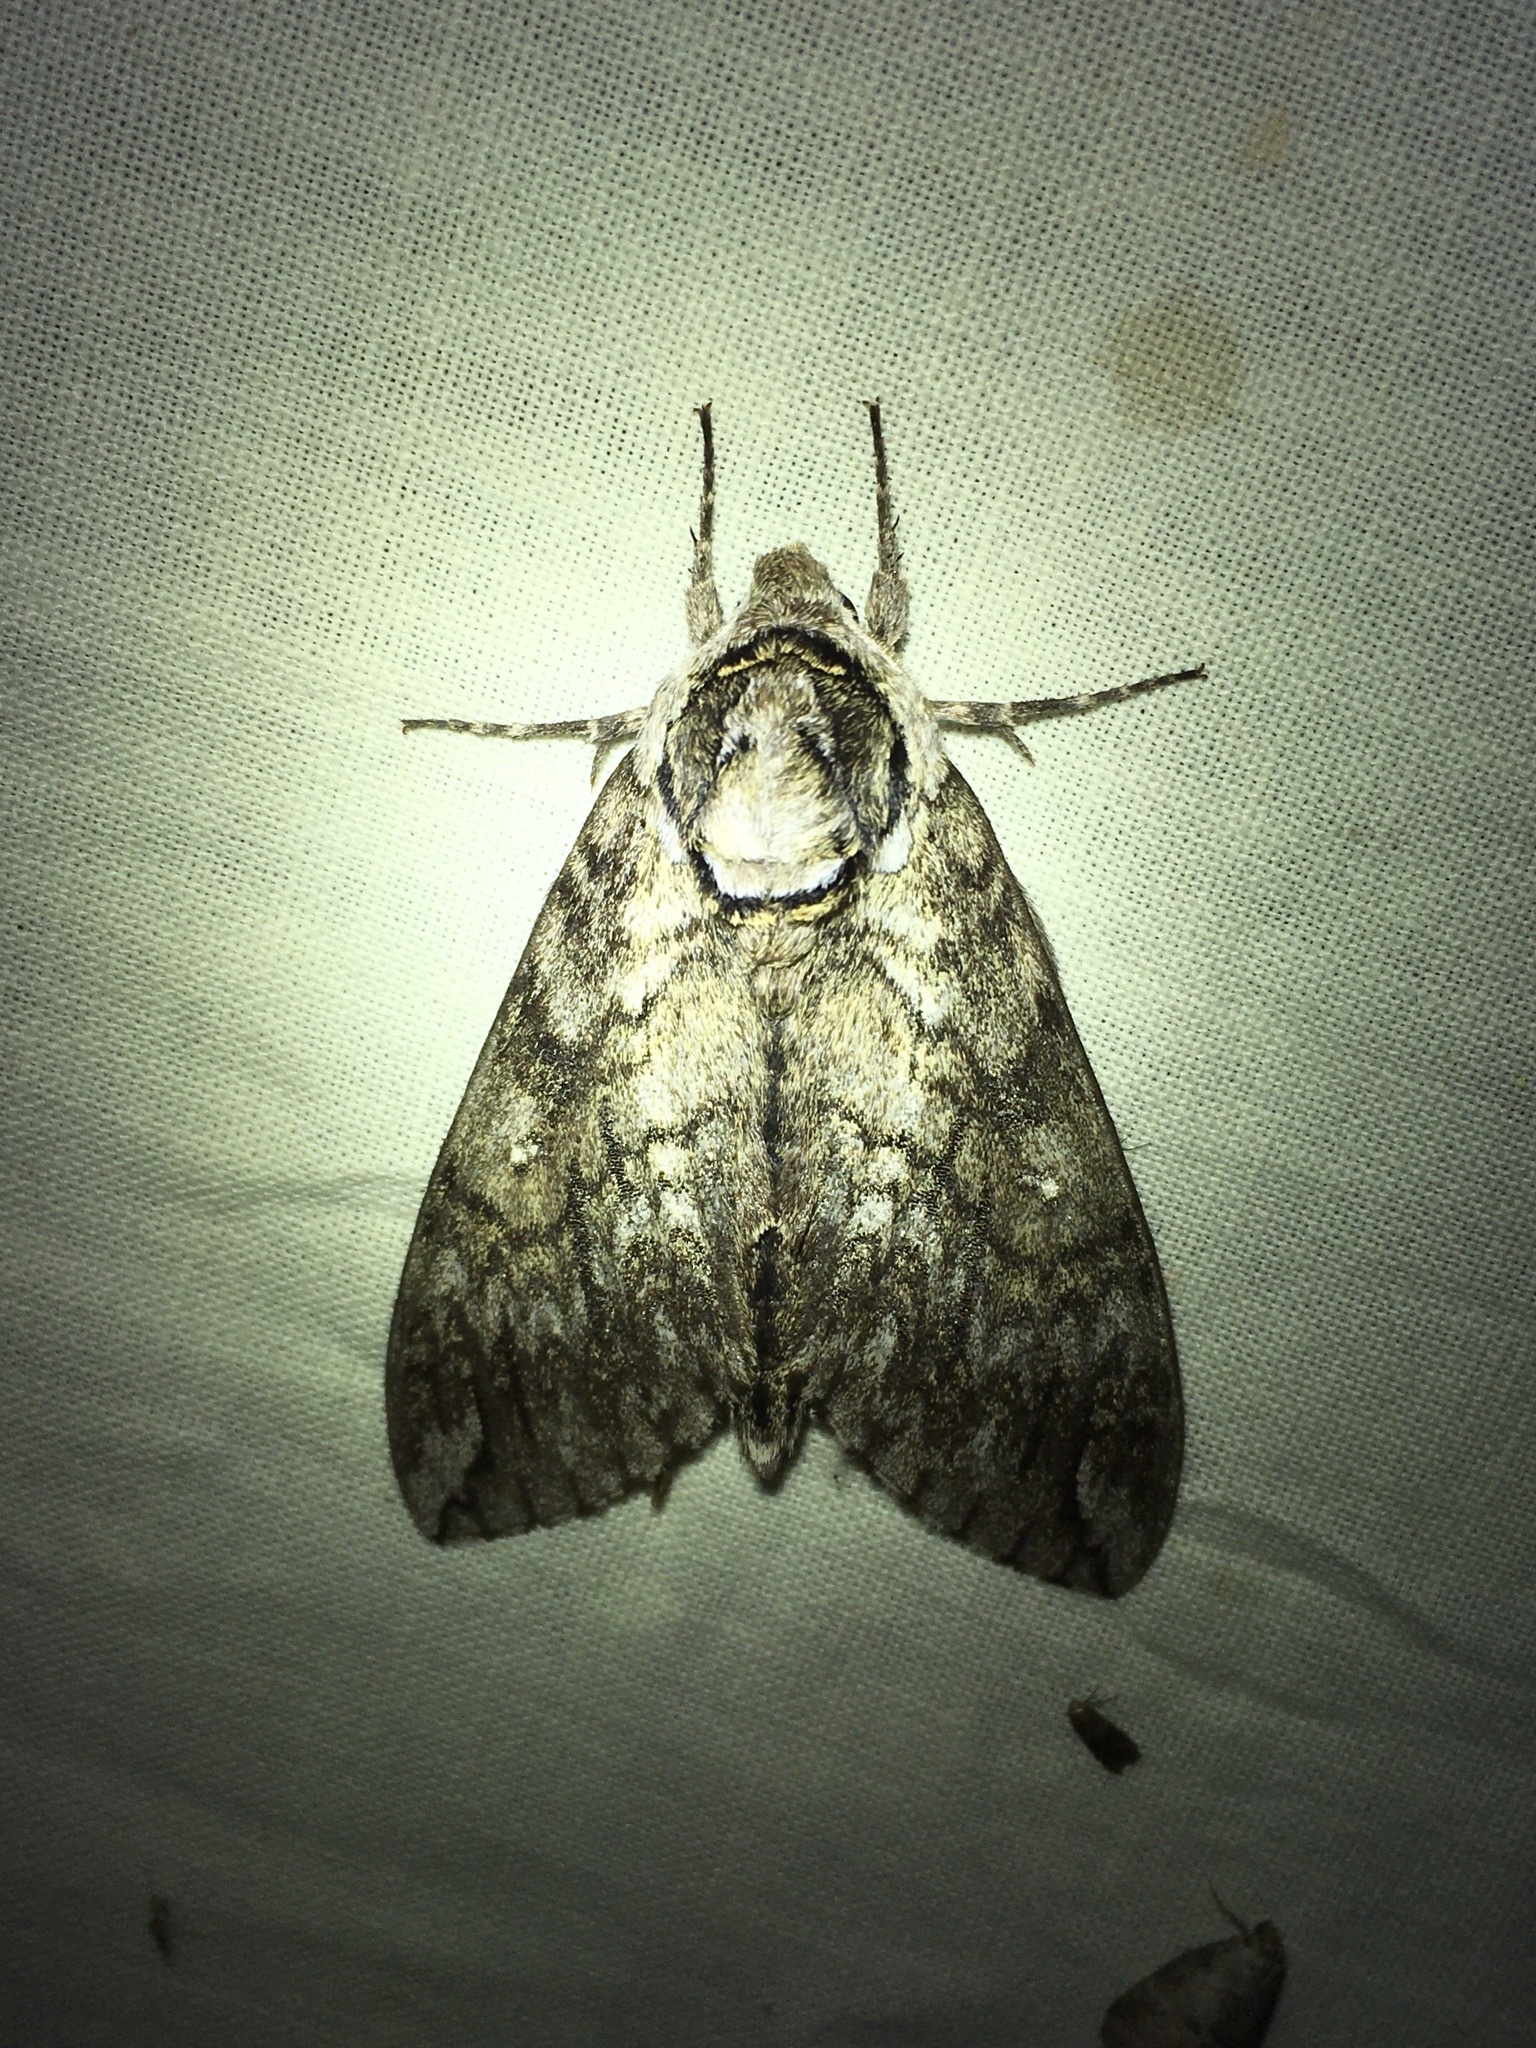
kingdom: Animalia
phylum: Arthropoda
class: Insecta
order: Lepidoptera
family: Sphingidae
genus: Ceratomia
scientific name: Ceratomia undulosa
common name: Waved sphinx
